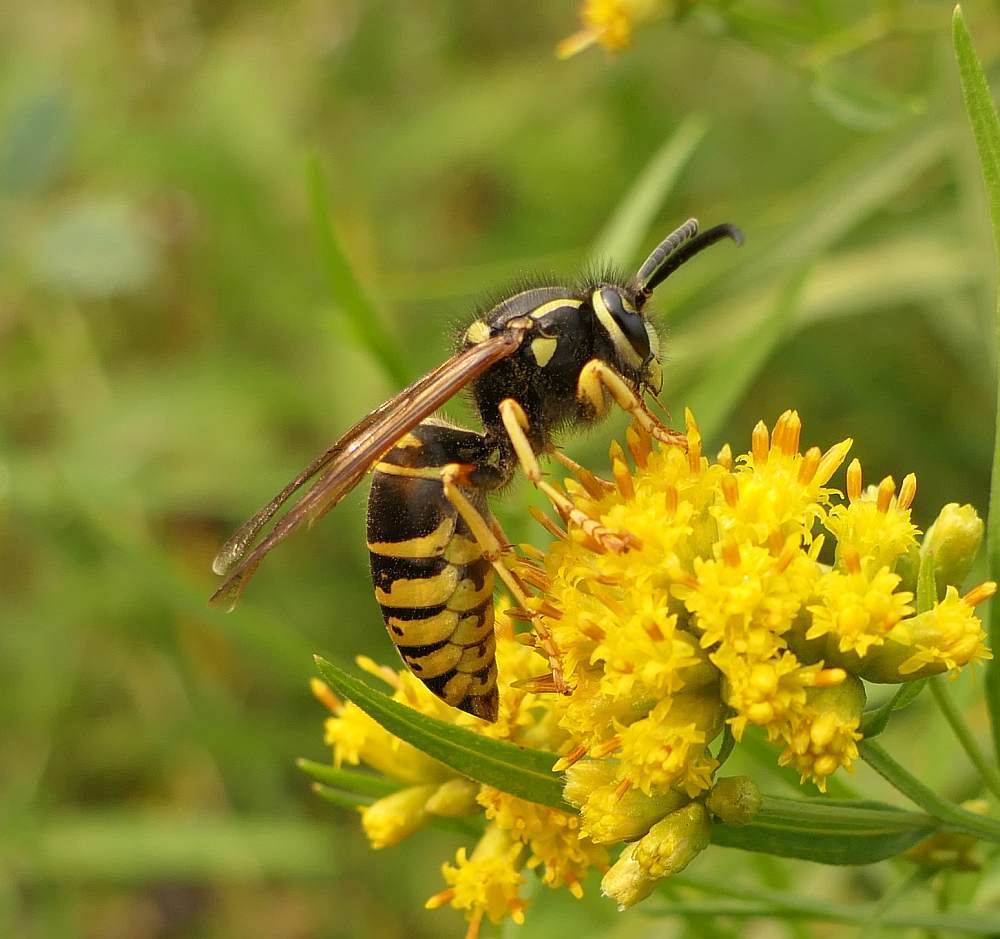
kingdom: Animalia
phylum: Arthropoda
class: Insecta
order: Hymenoptera
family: Vespidae
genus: Vespula
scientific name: Vespula vidua
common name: Widow yellowjacket
